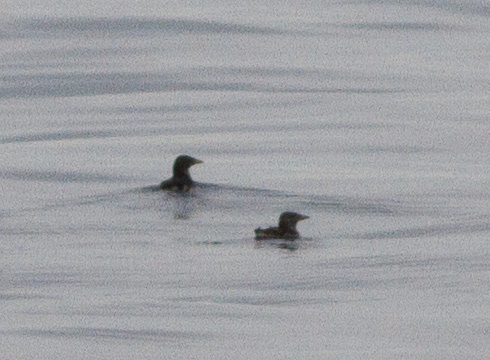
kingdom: Animalia
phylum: Chordata
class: Aves
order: Charadriiformes
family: Alcidae
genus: Cerorhinca
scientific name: Cerorhinca monocerata
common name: Rhinoceros auklet
